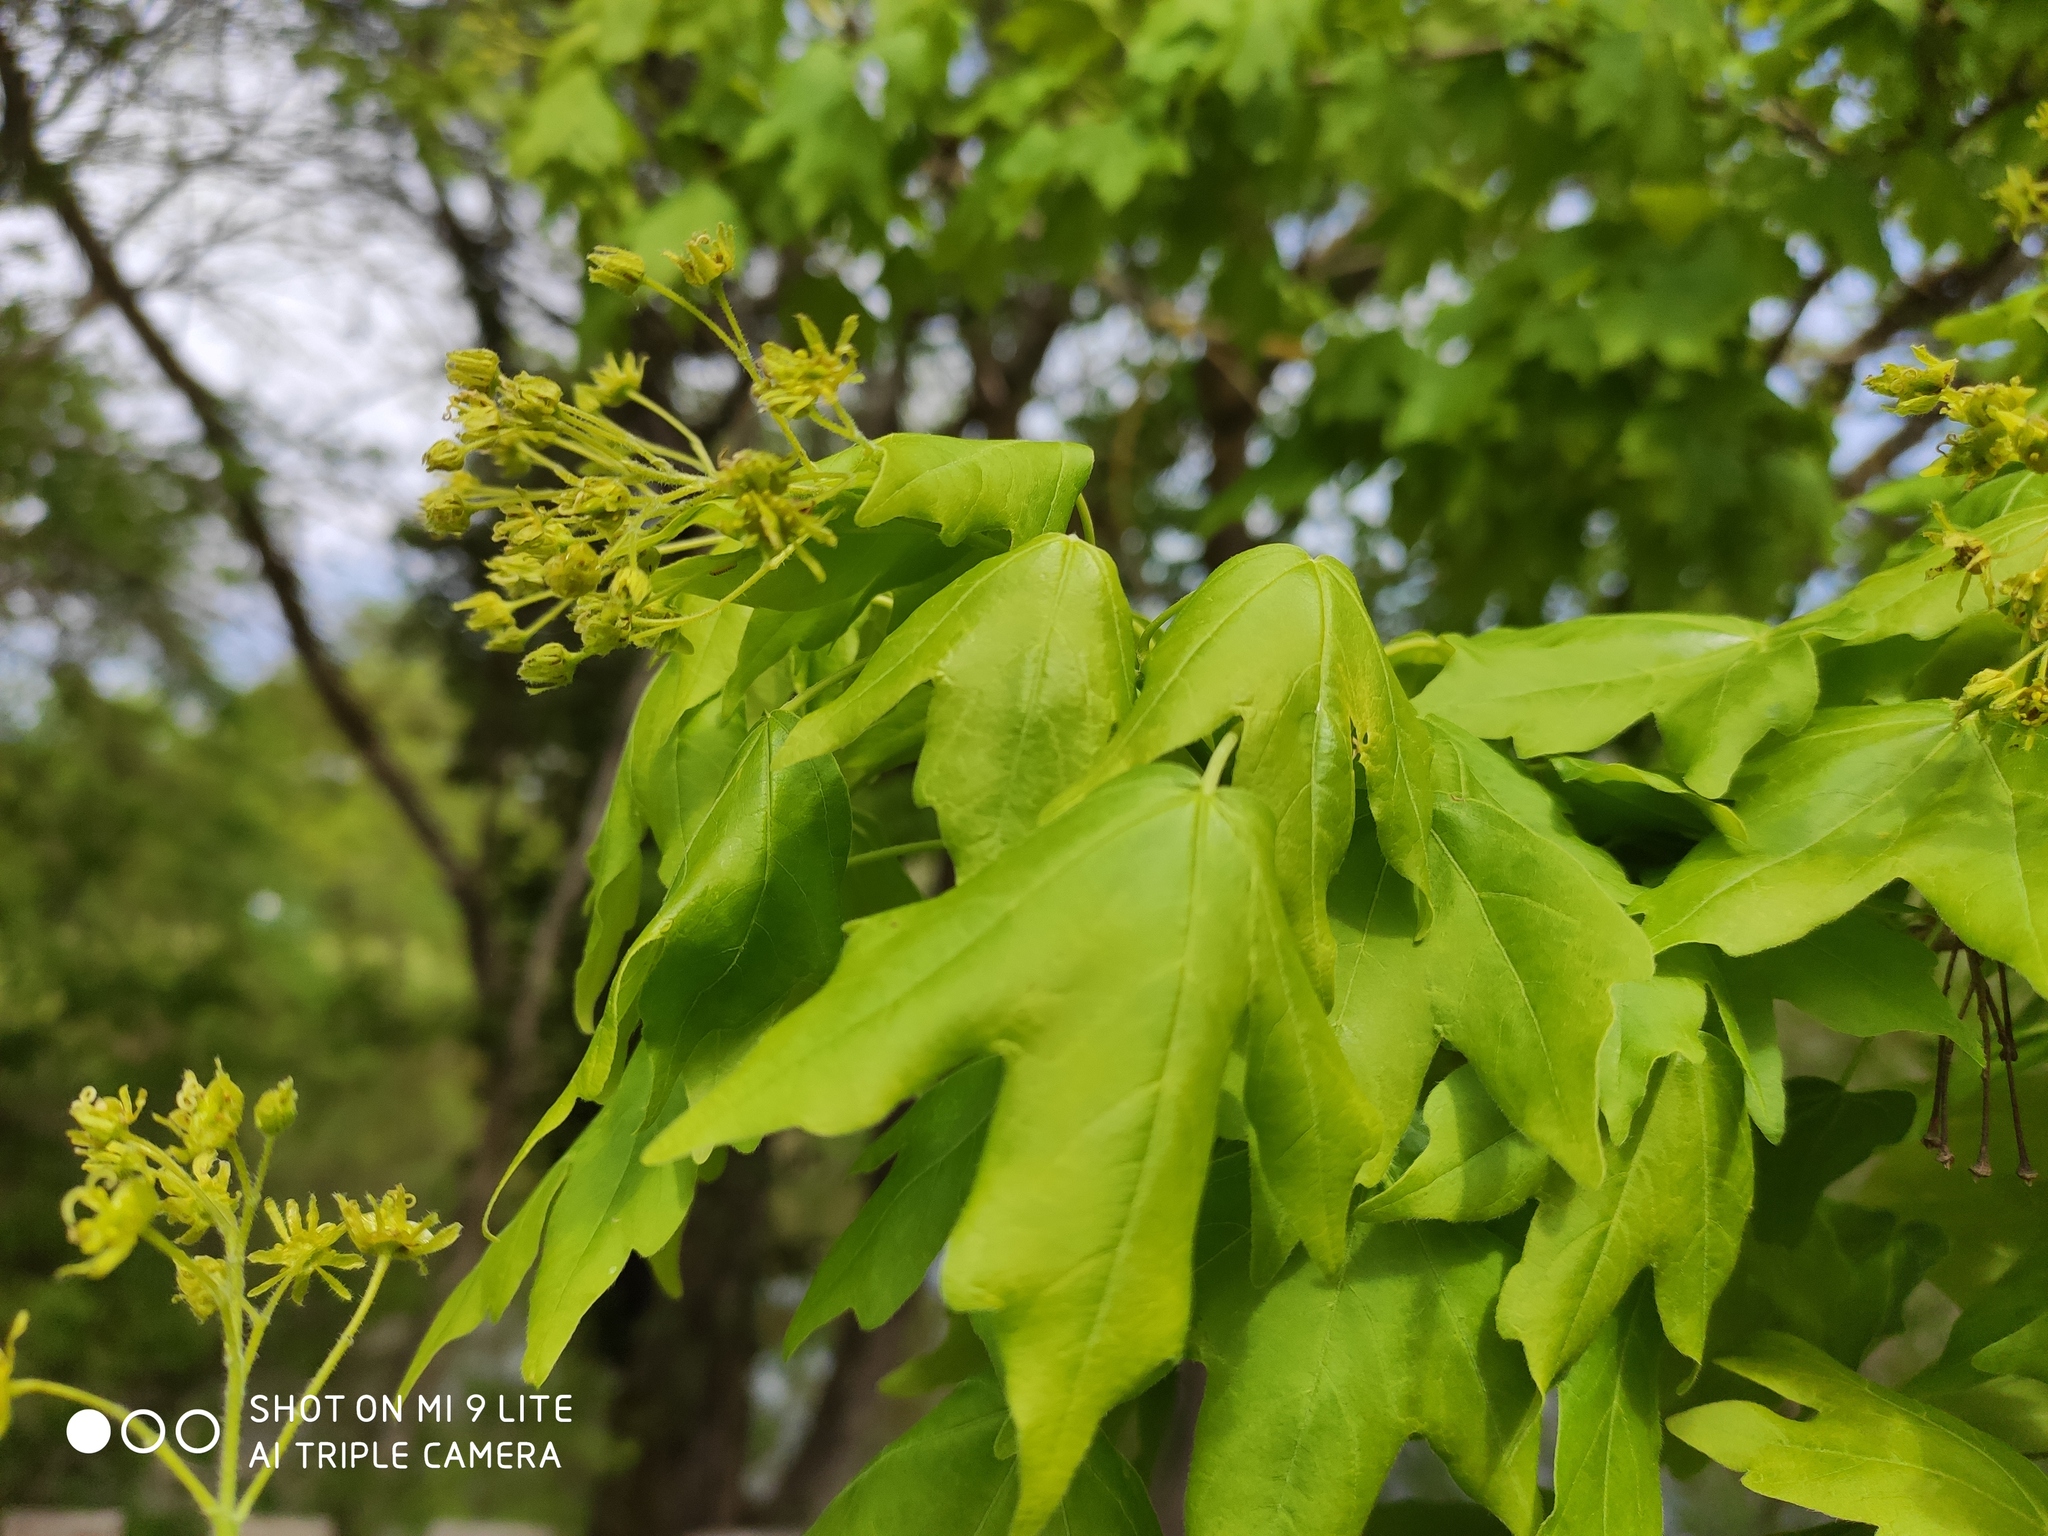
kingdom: Plantae
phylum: Tracheophyta
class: Magnoliopsida
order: Sapindales
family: Sapindaceae
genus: Acer
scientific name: Acer campestre
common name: Field maple
